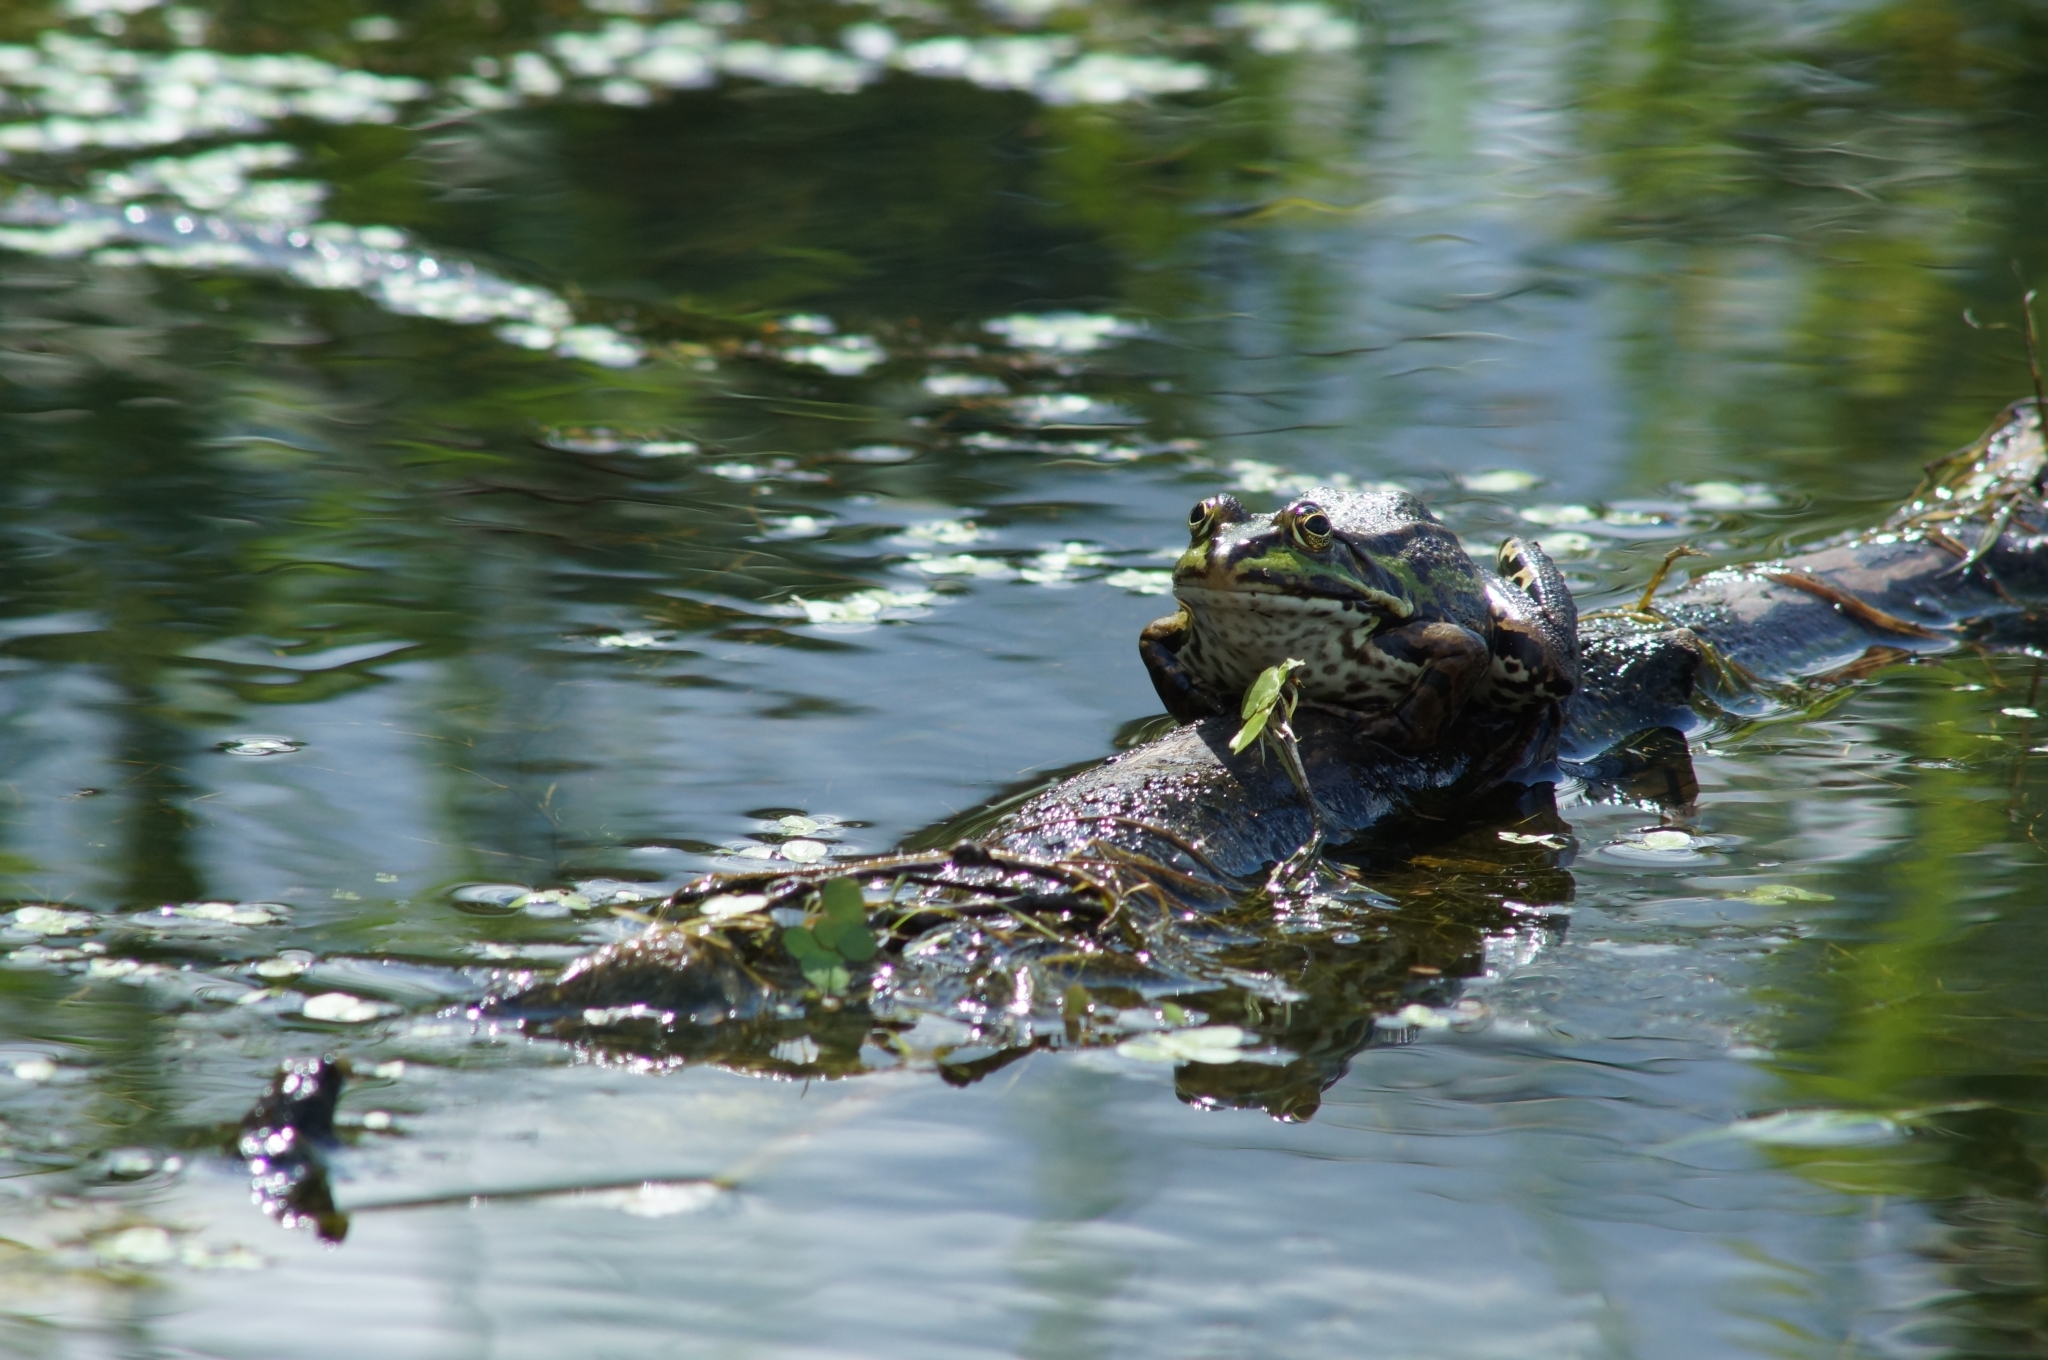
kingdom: Animalia
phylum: Chordata
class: Amphibia
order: Anura
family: Ranidae
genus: Pelophylax
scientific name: Pelophylax
